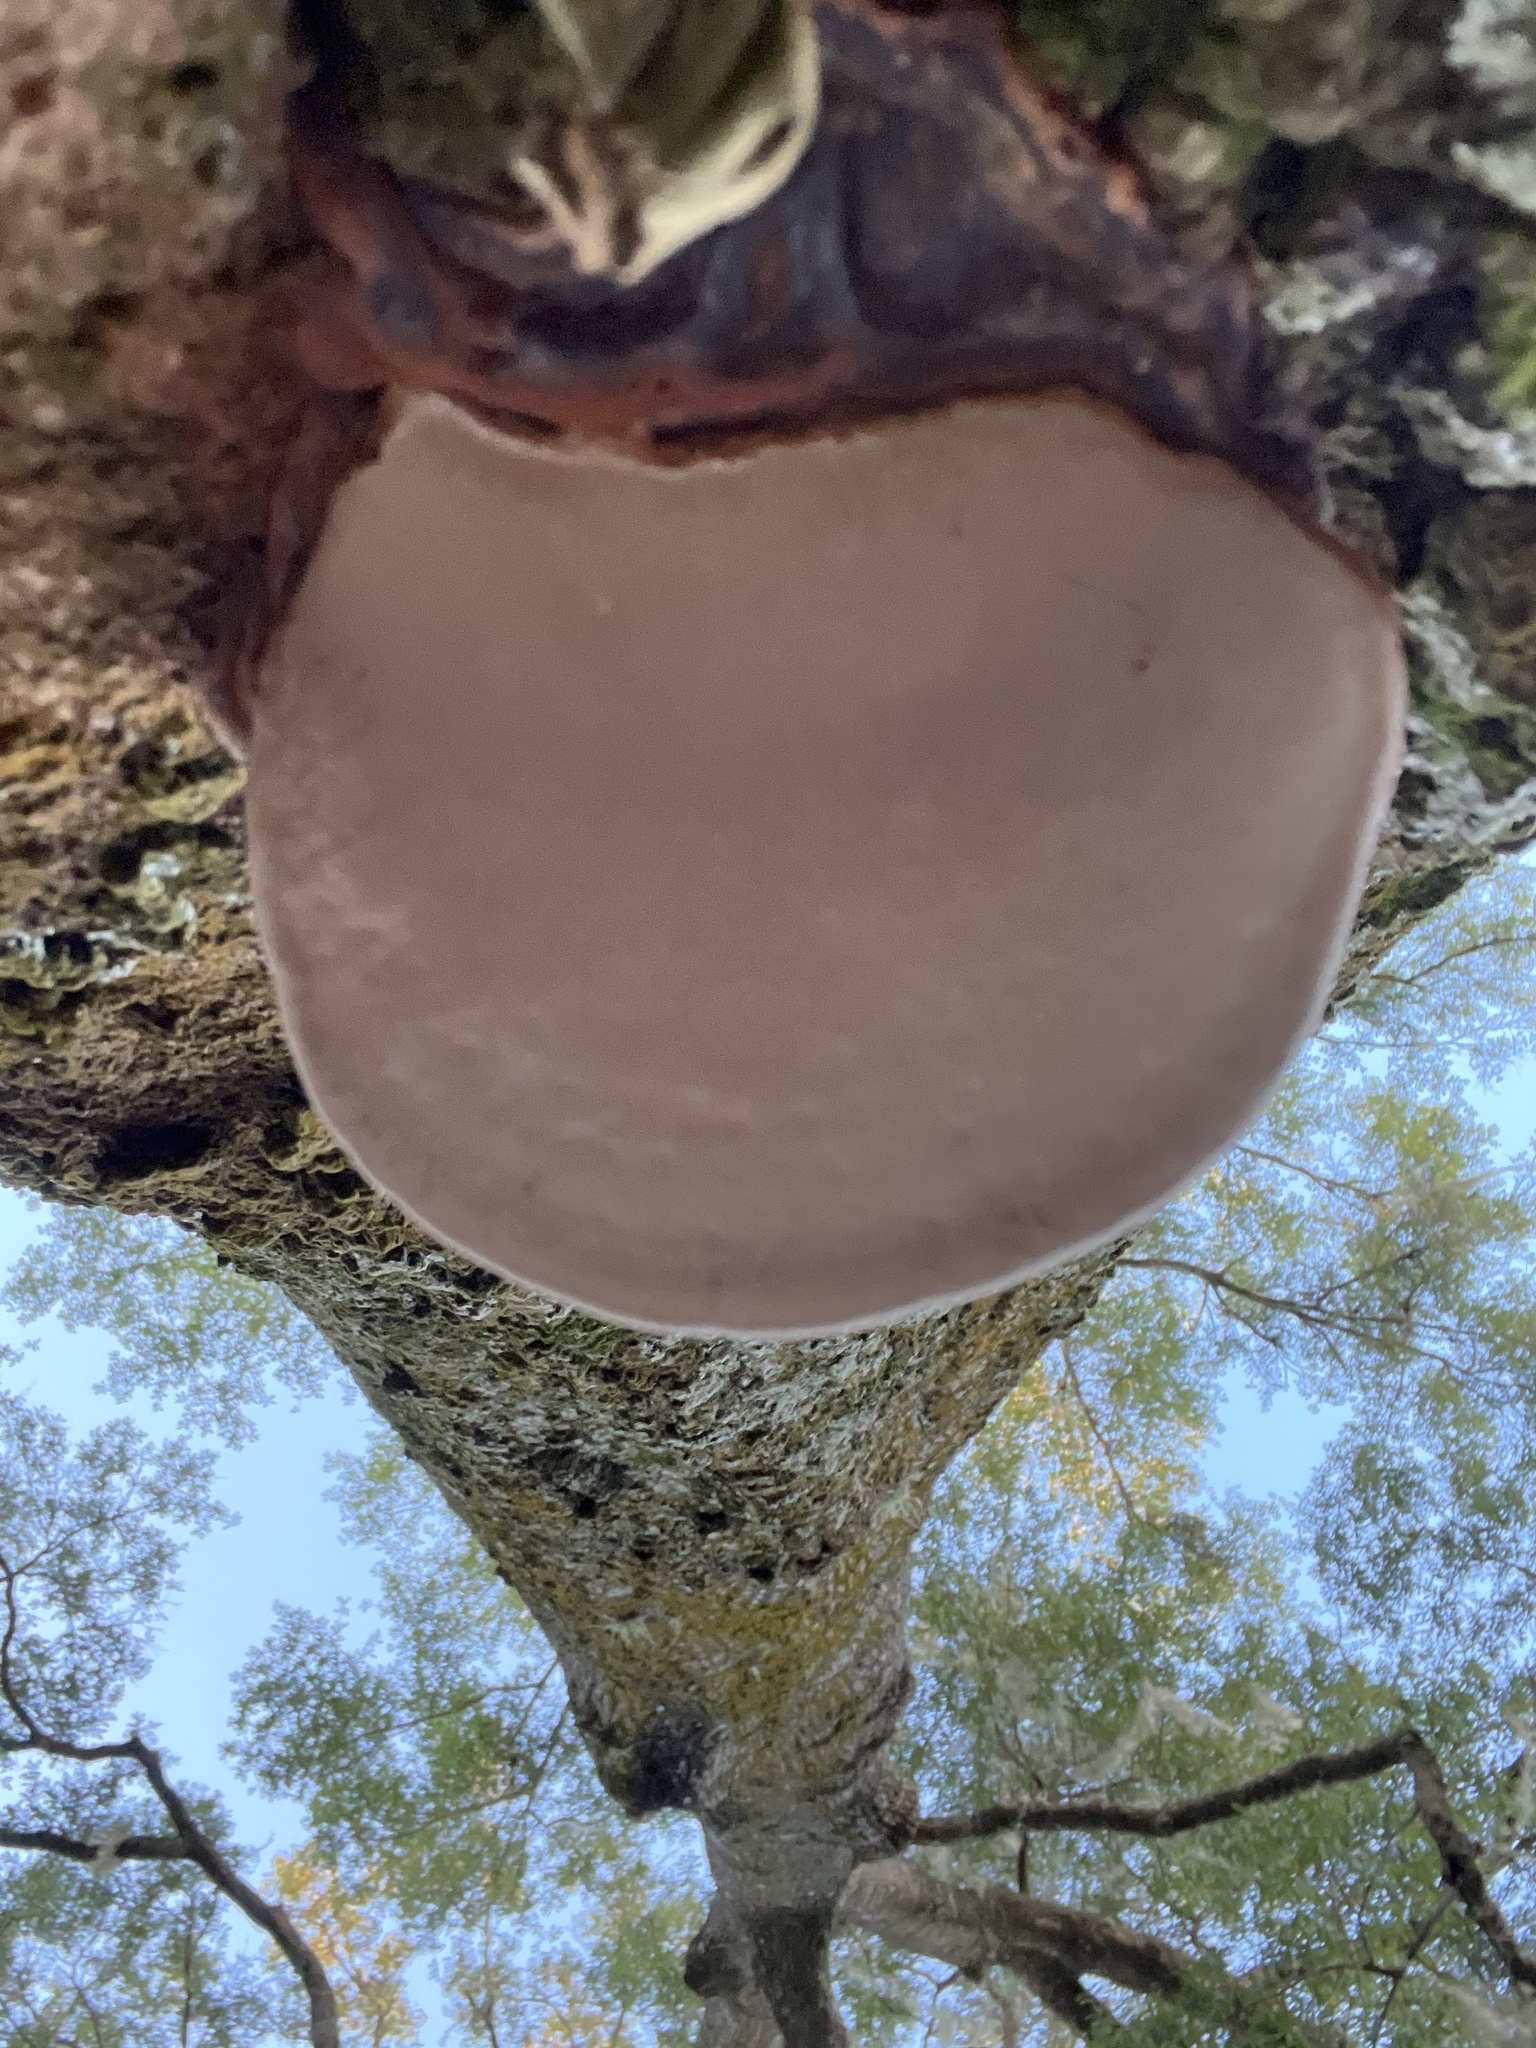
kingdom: Fungi
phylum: Basidiomycota
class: Agaricomycetes
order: Polyporales
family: Polyporaceae
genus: Ganoderma
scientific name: Ganoderma
